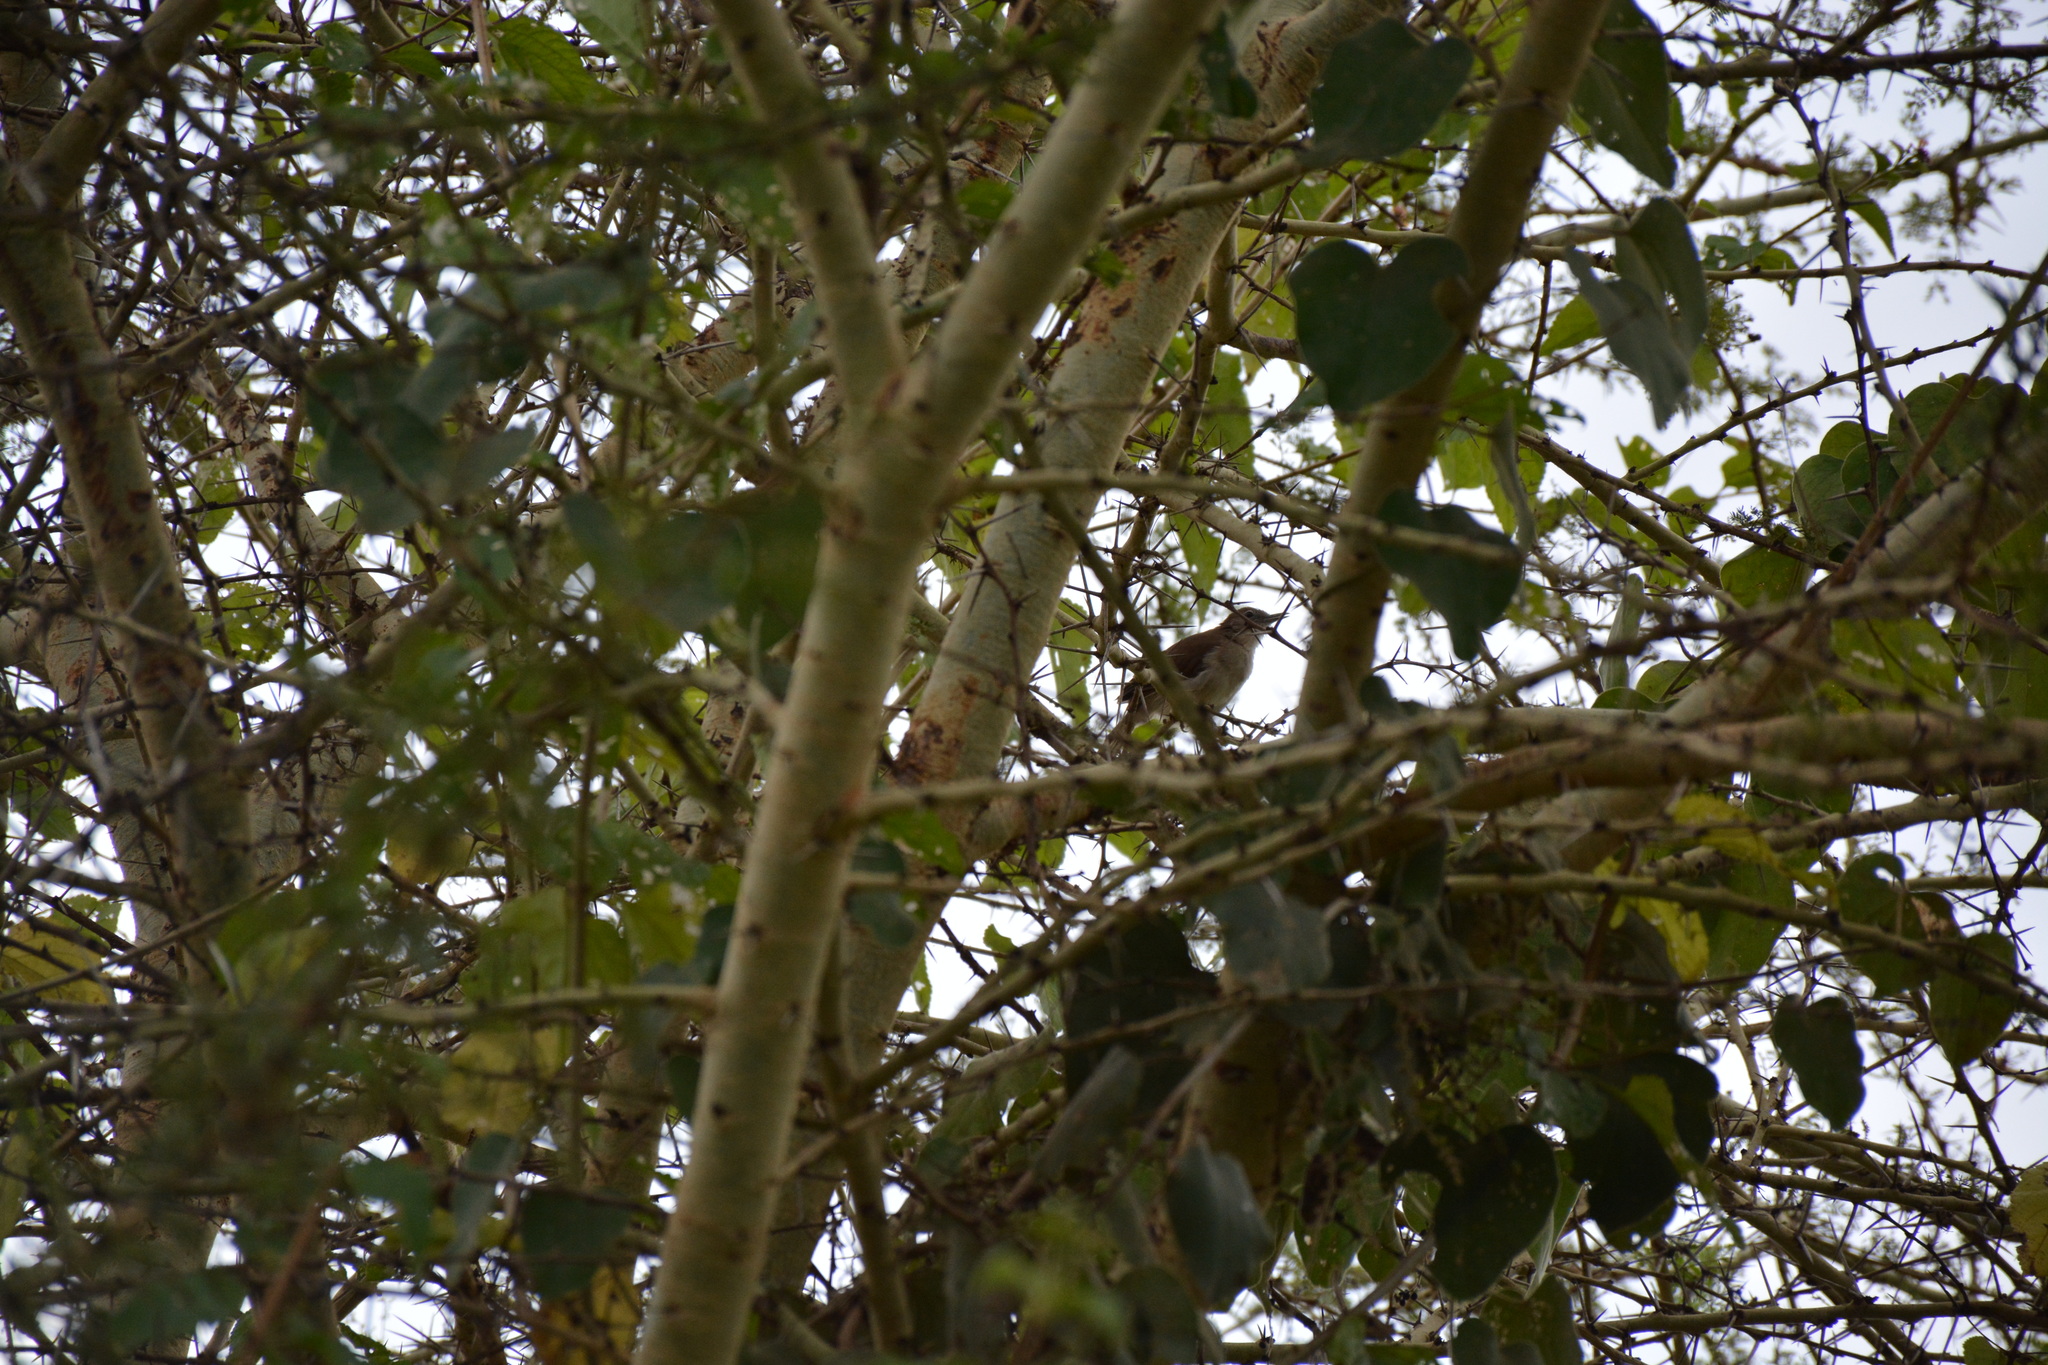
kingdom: Animalia
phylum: Chordata
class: Aves
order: Passeriformes
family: Pycnonotidae
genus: Phyllastrephus
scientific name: Phyllastrephus cabanisi
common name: Cabanis's greenbul
